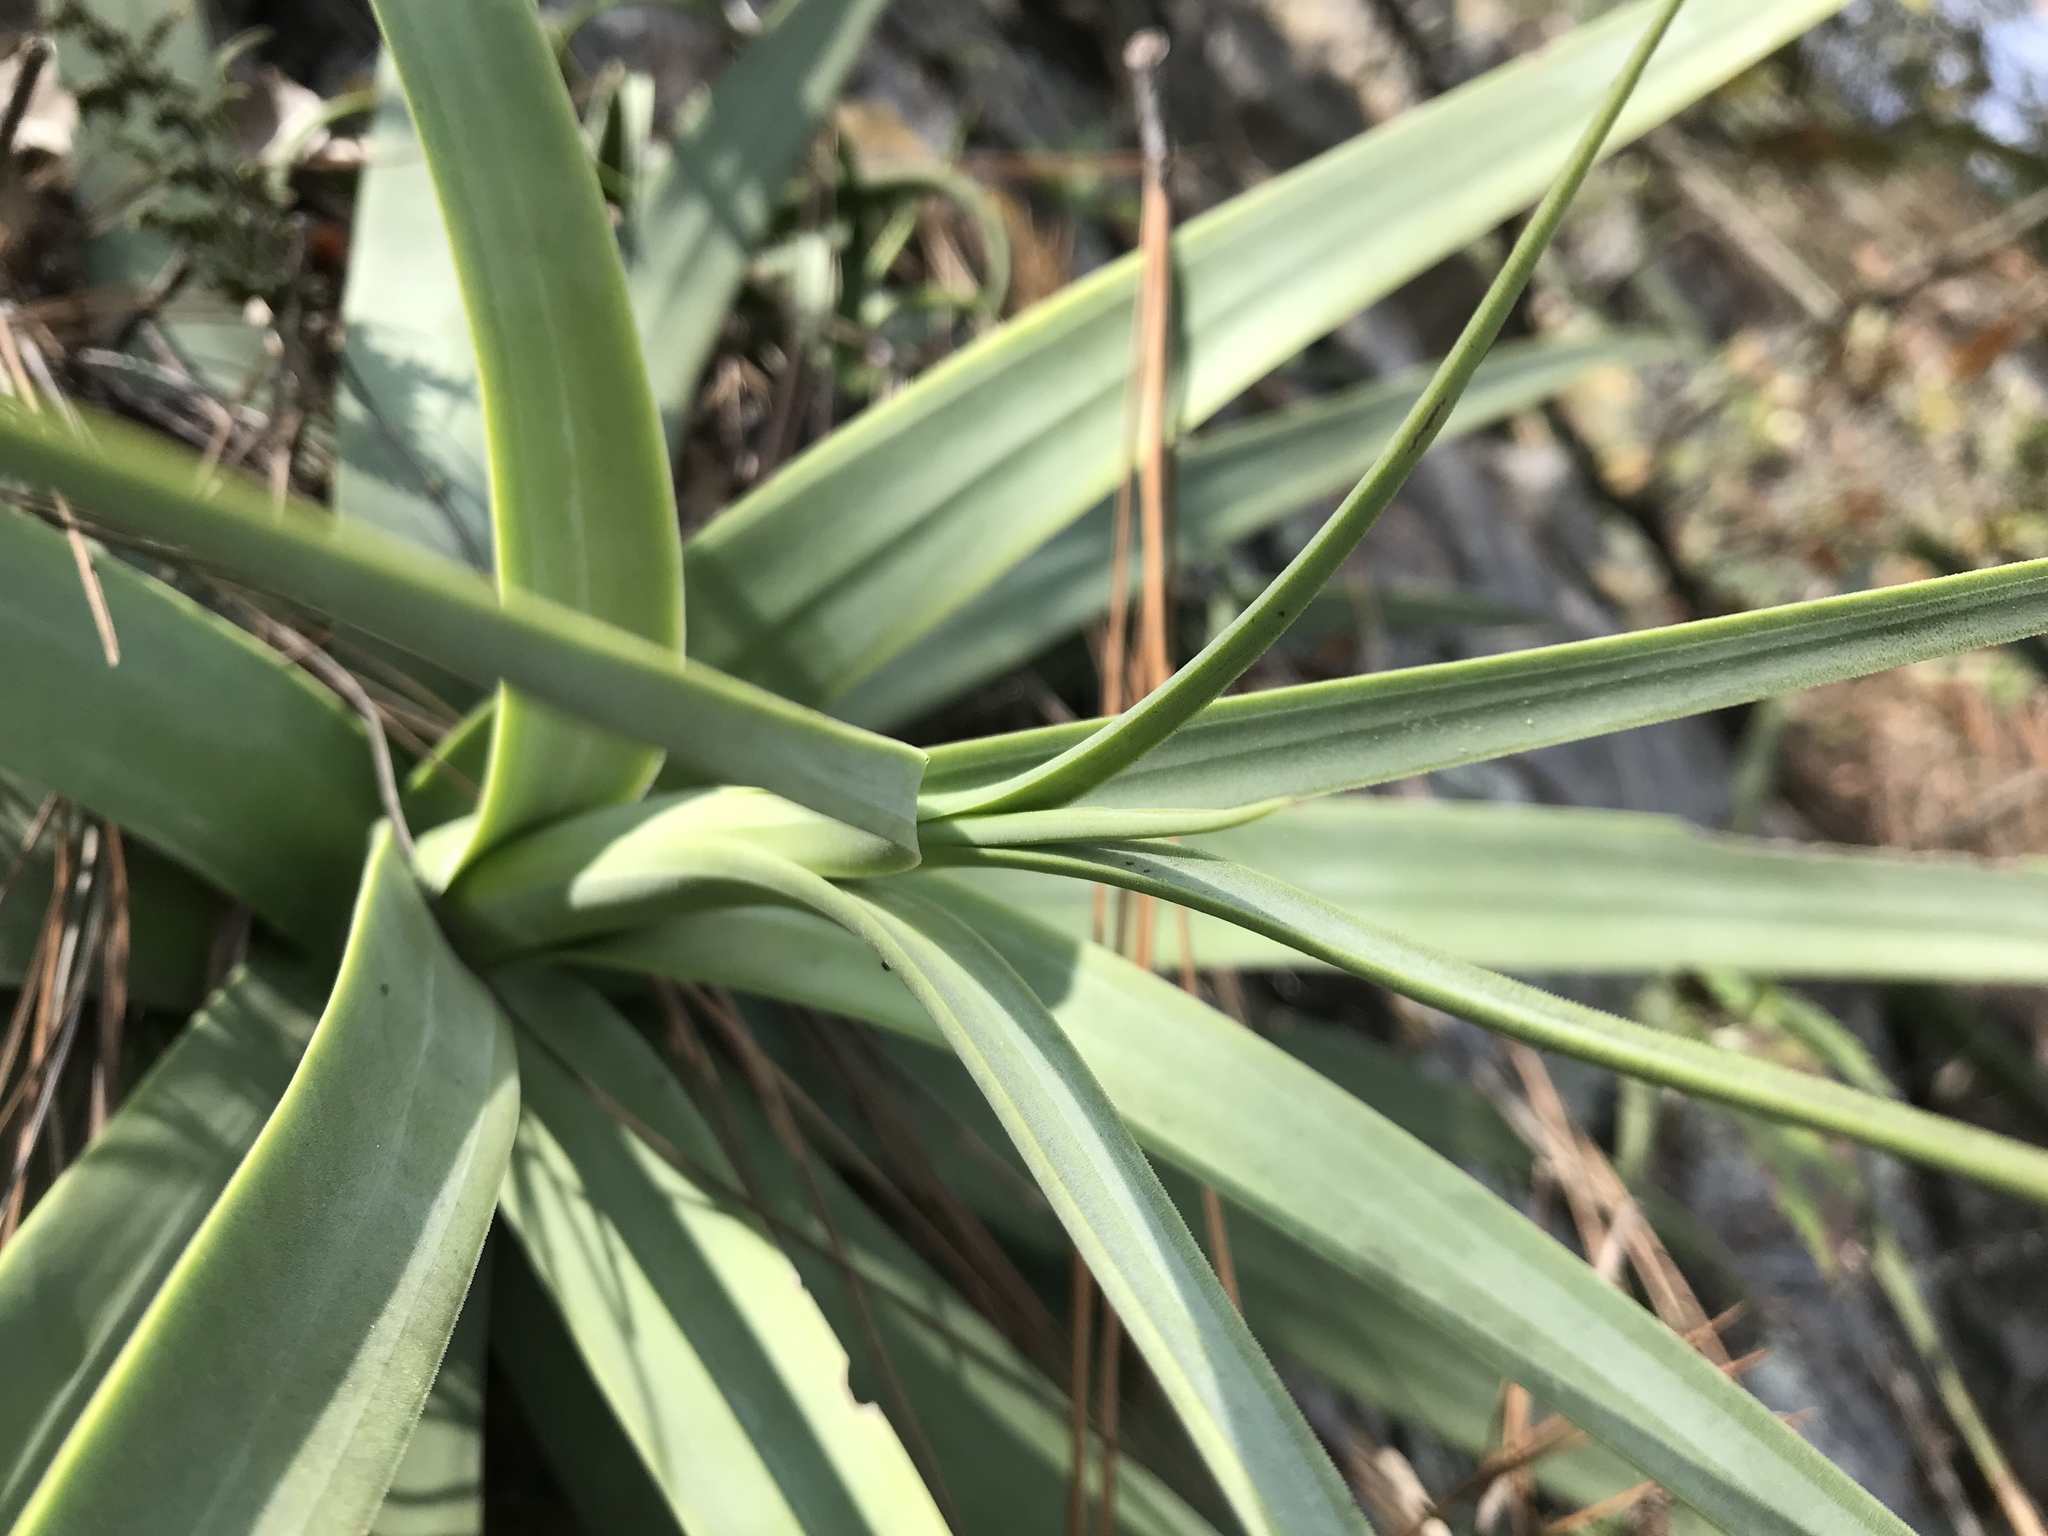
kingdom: Plantae
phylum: Tracheophyta
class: Liliopsida
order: Asparagales
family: Asparagaceae
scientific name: Asparagaceae
